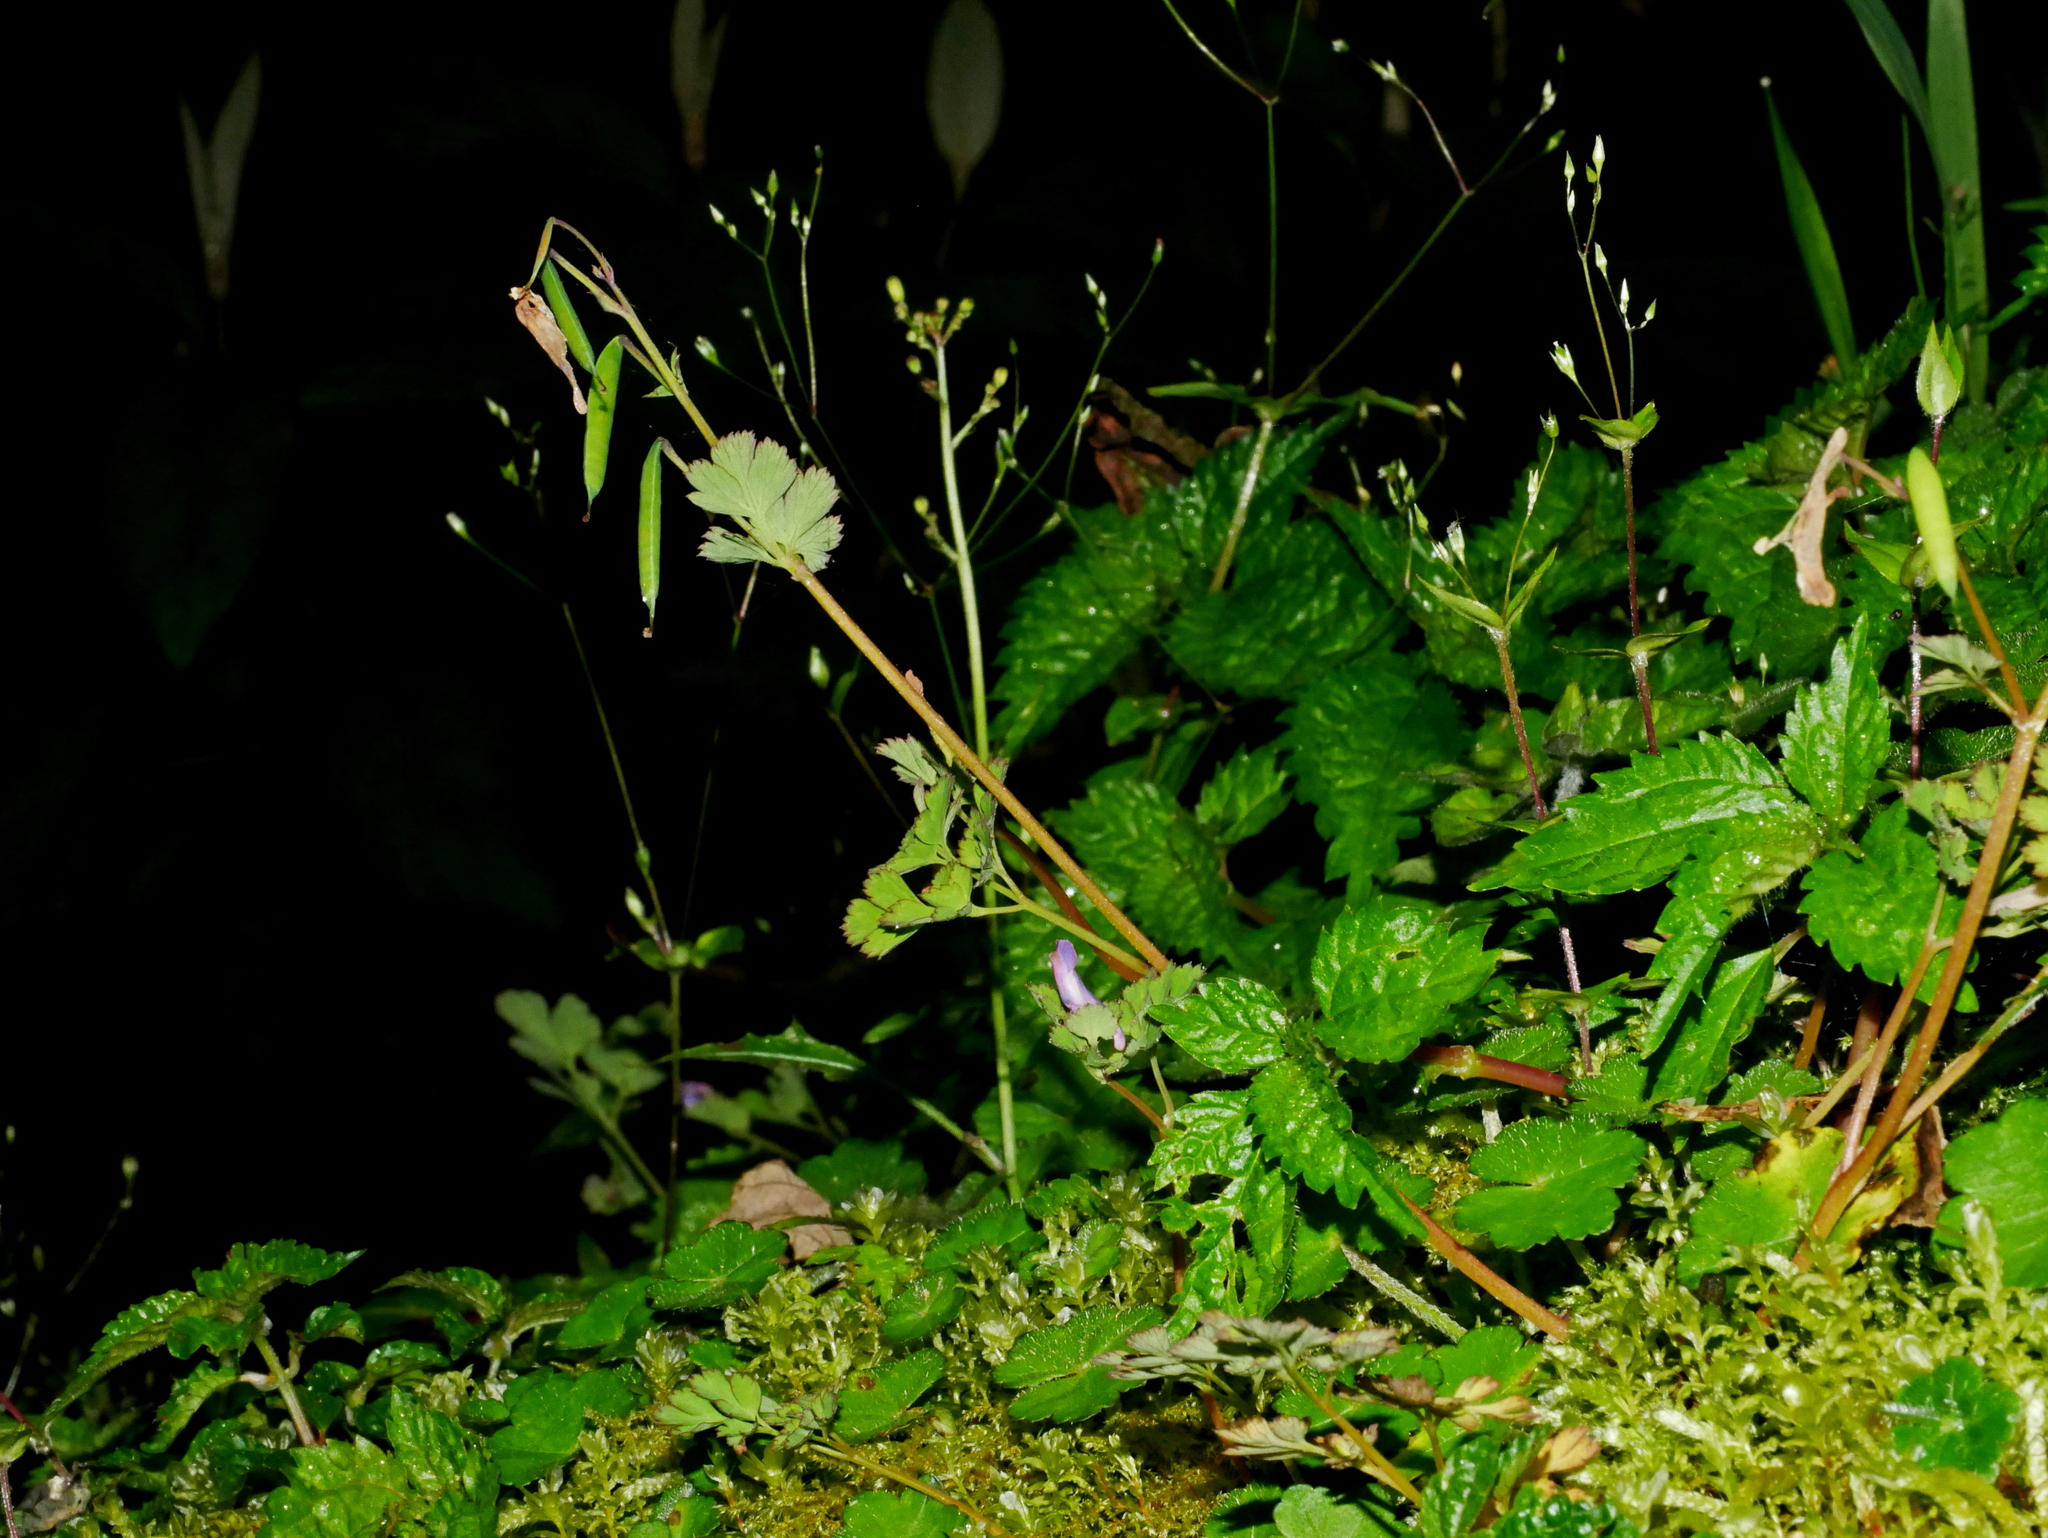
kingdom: Plantae
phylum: Tracheophyta
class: Magnoliopsida
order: Ranunculales
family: Papaveraceae
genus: Corydalis
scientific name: Corydalis incisa
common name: Incised fumewort
